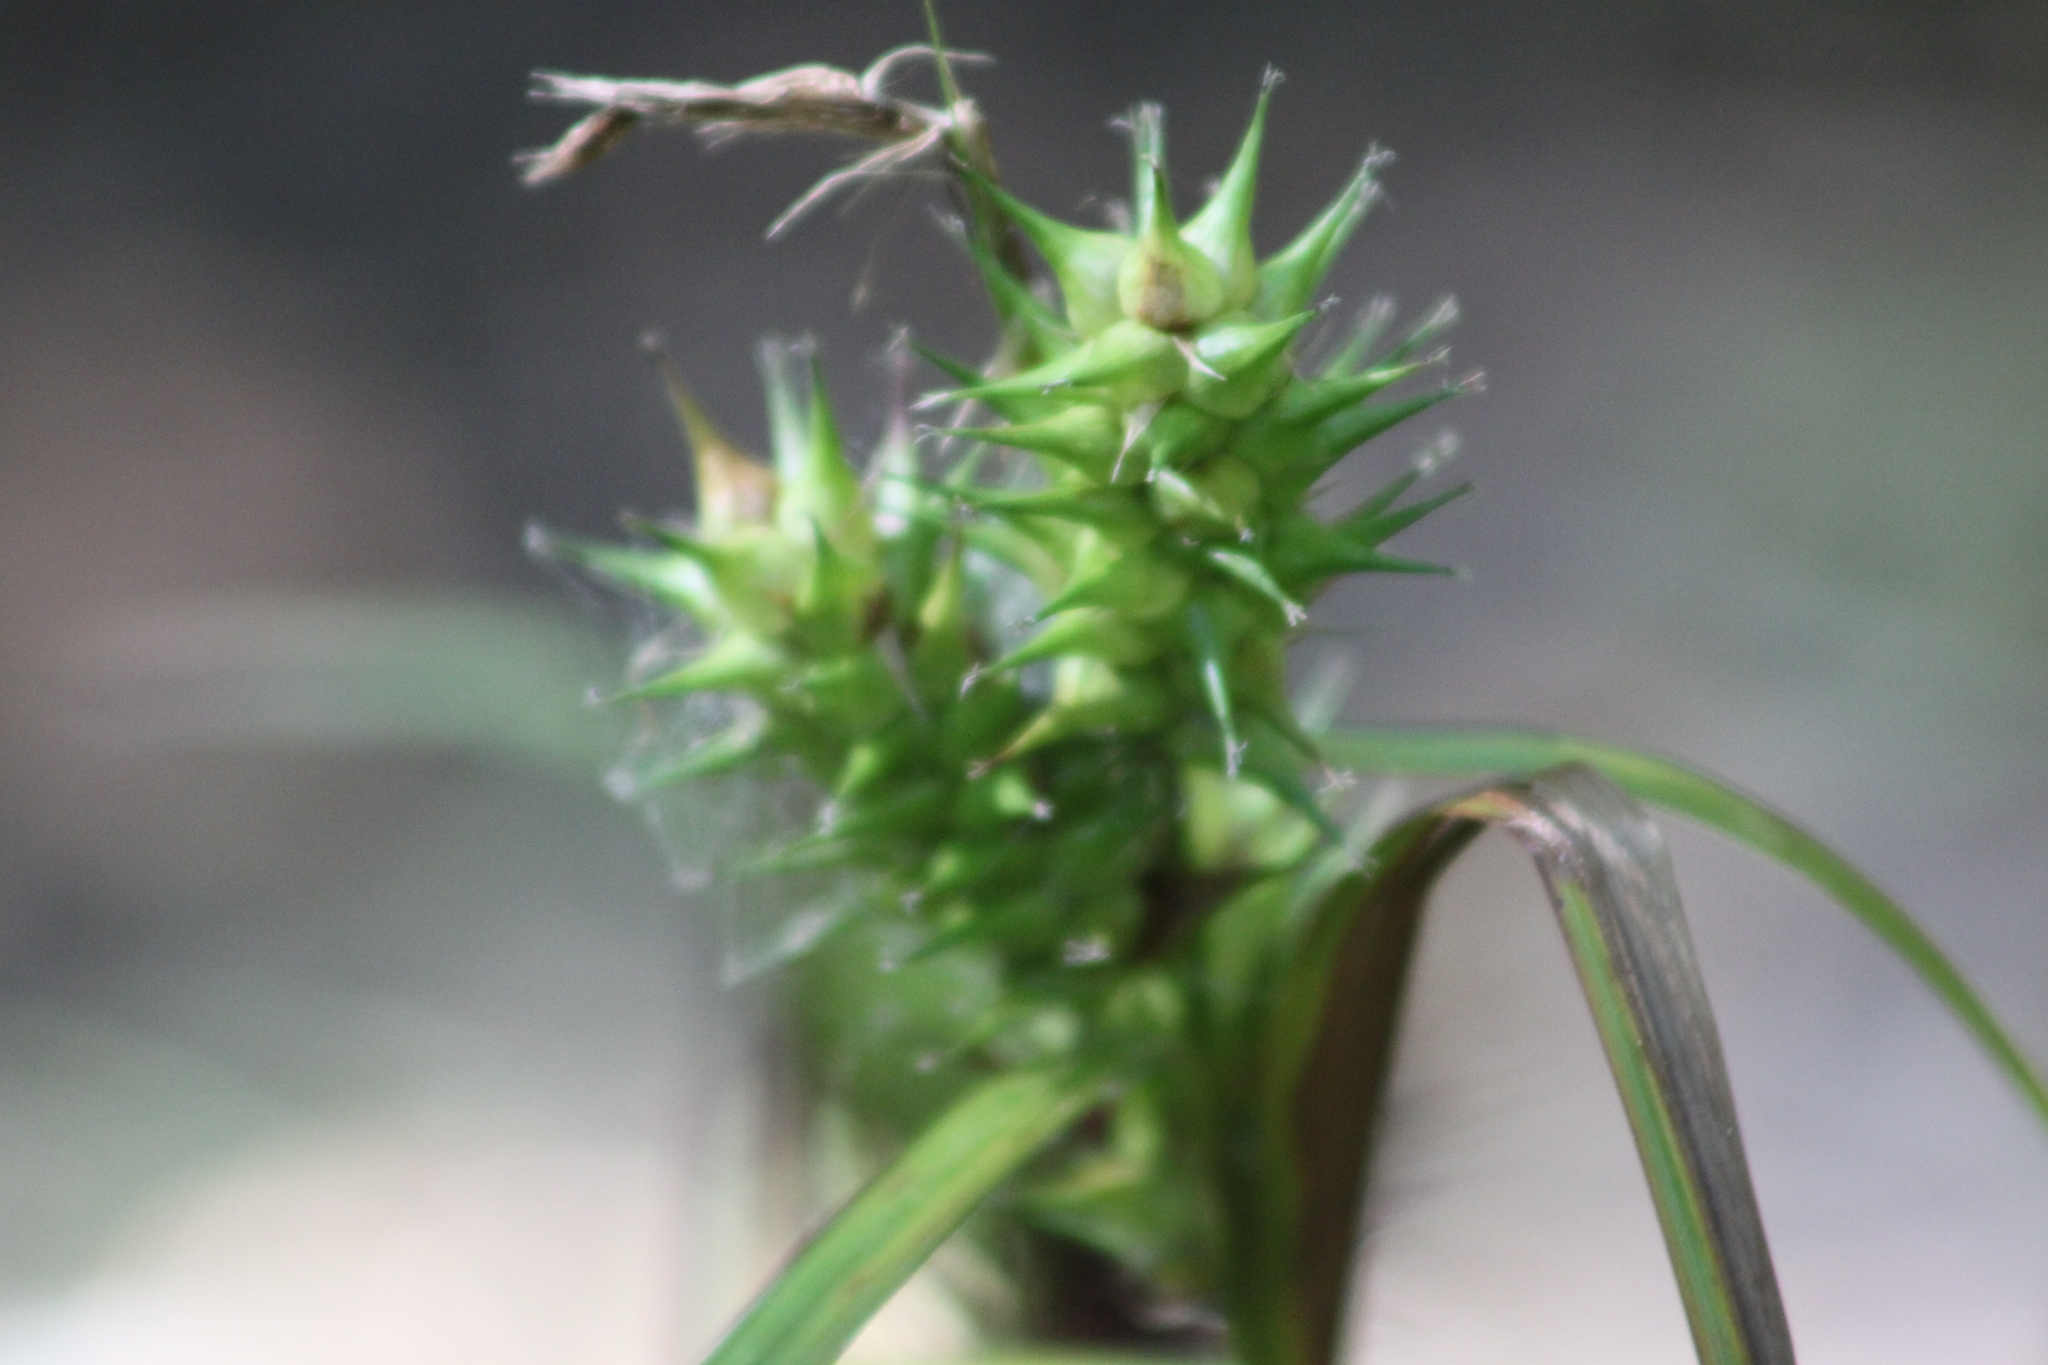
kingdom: Plantae
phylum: Tracheophyta
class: Liliopsida
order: Poales
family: Cyperaceae
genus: Carex
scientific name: Carex lupulina
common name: Hop sedge
